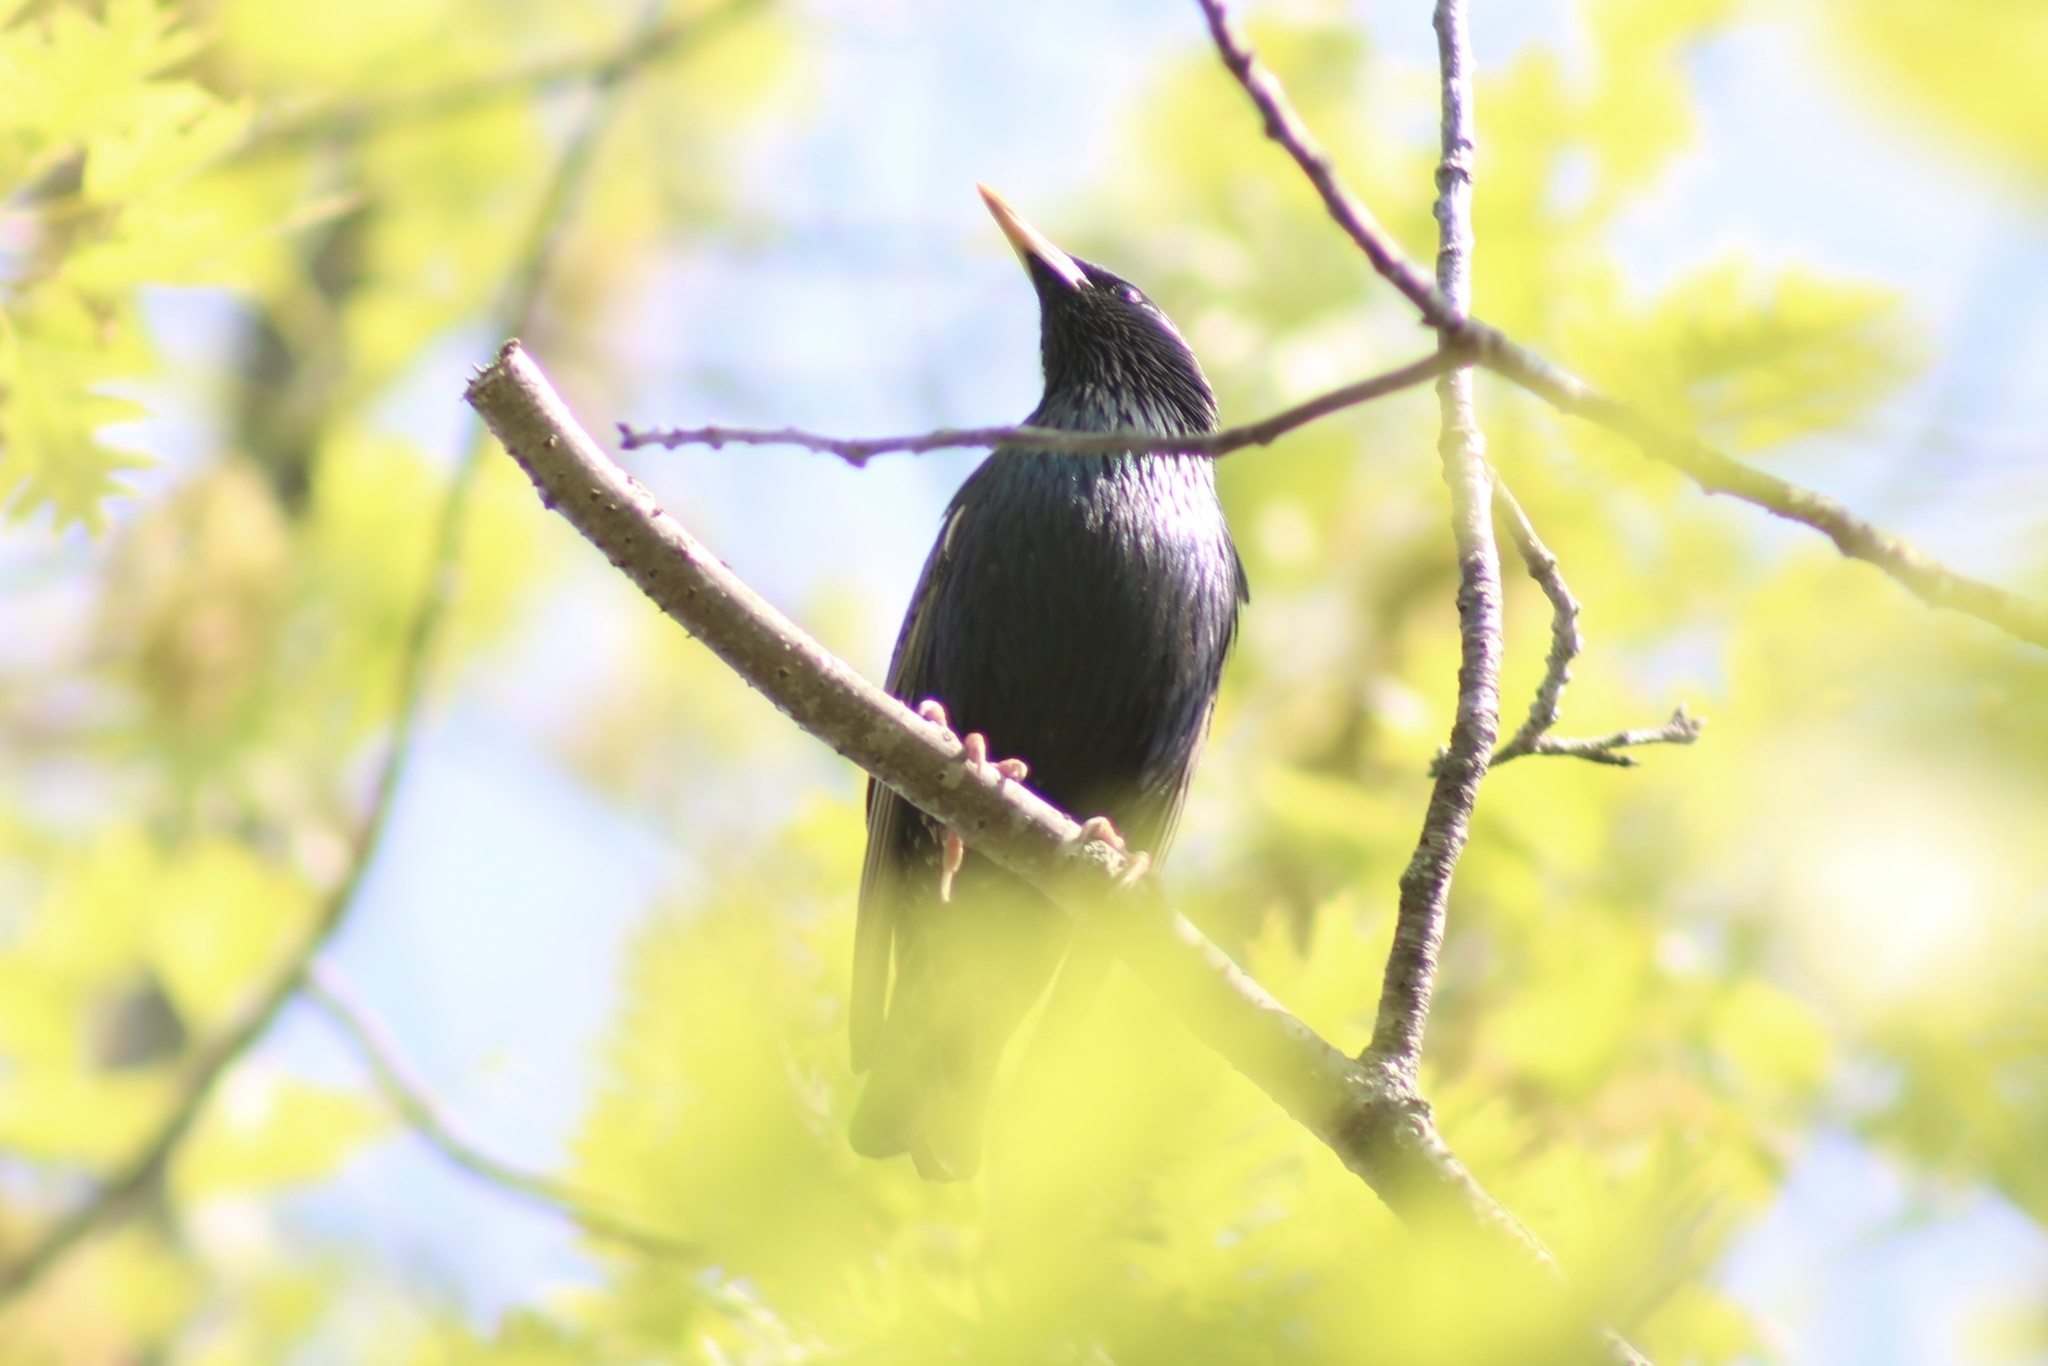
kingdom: Animalia
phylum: Chordata
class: Aves
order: Passeriformes
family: Sturnidae
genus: Sturnus
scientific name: Sturnus vulgaris
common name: Common starling
